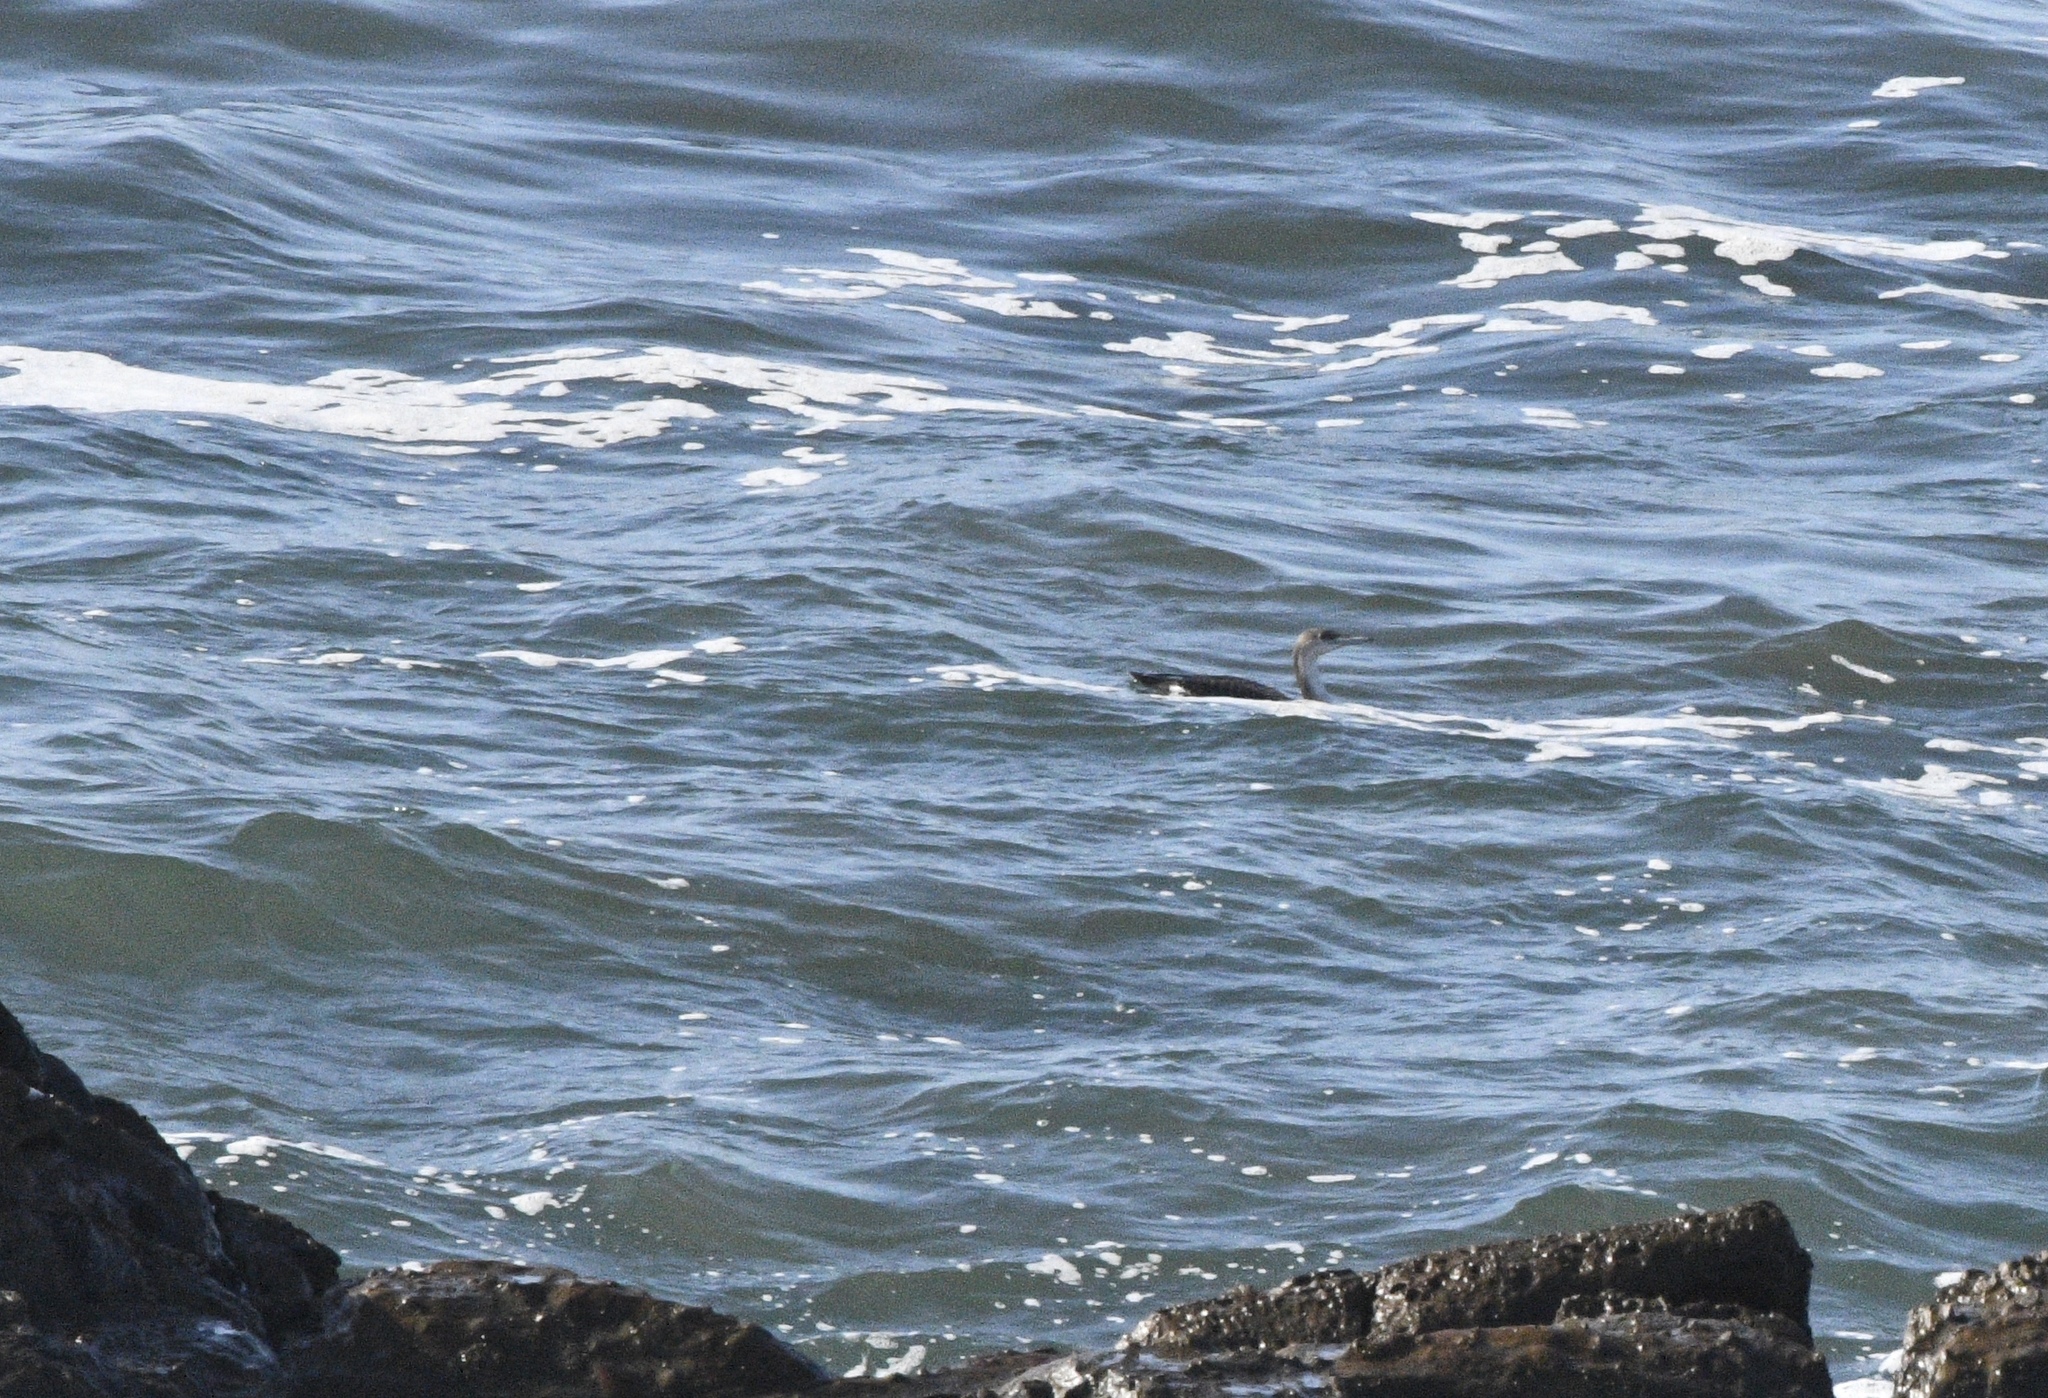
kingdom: Animalia
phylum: Chordata
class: Aves
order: Gaviiformes
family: Gaviidae
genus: Gavia
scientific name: Gavia pacifica
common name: Pacific loon
